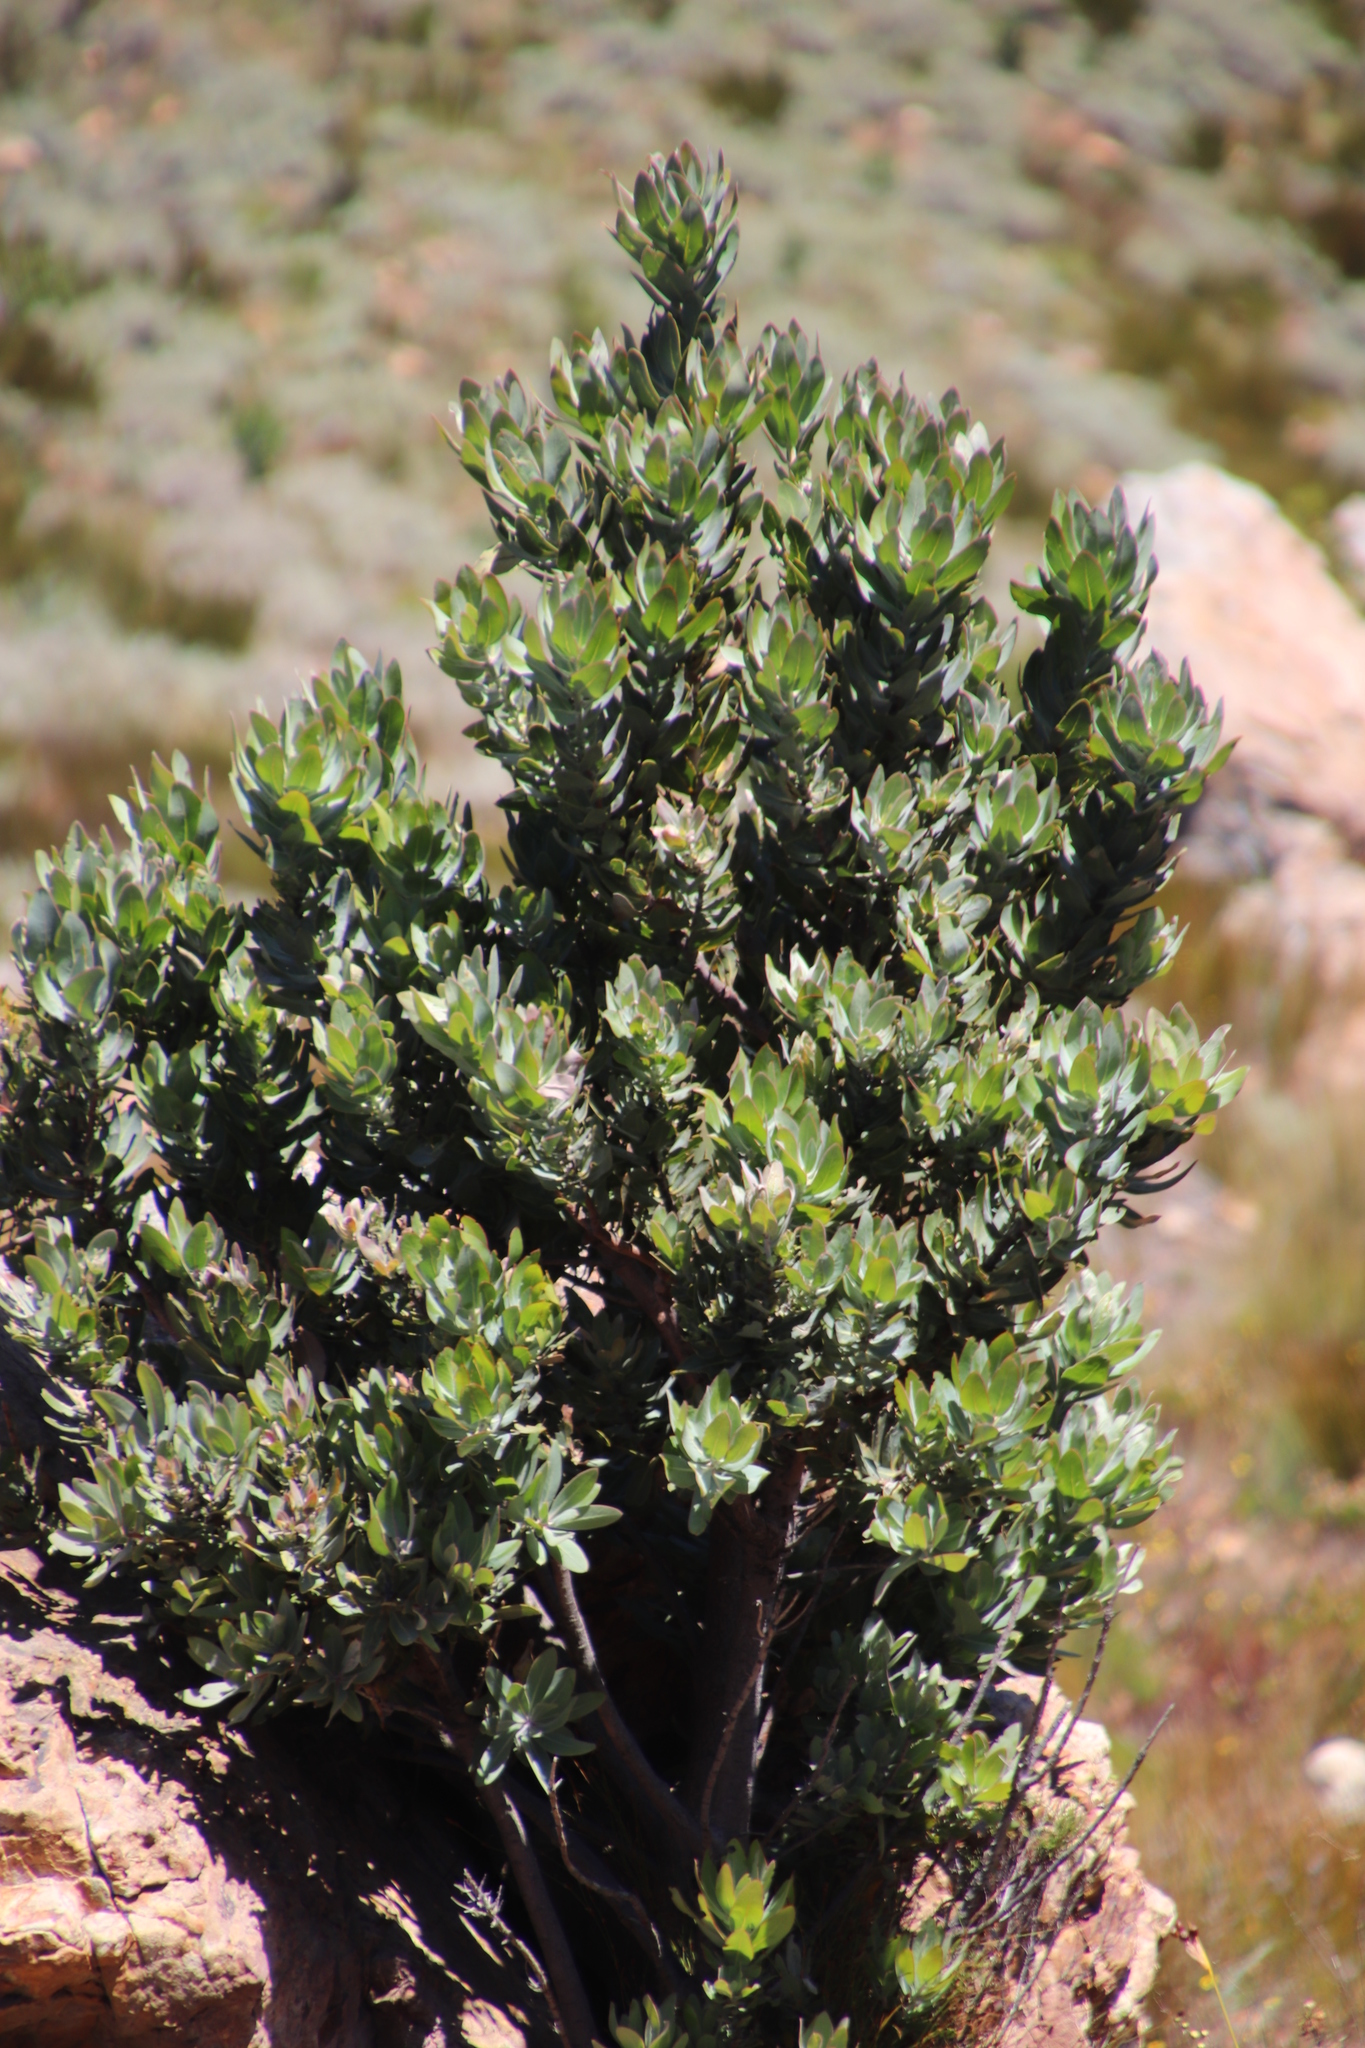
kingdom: Plantae
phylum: Tracheophyta
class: Magnoliopsida
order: Proteales
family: Proteaceae
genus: Protea
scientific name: Protea laurifolia
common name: Grey-leaf sugarbsh
